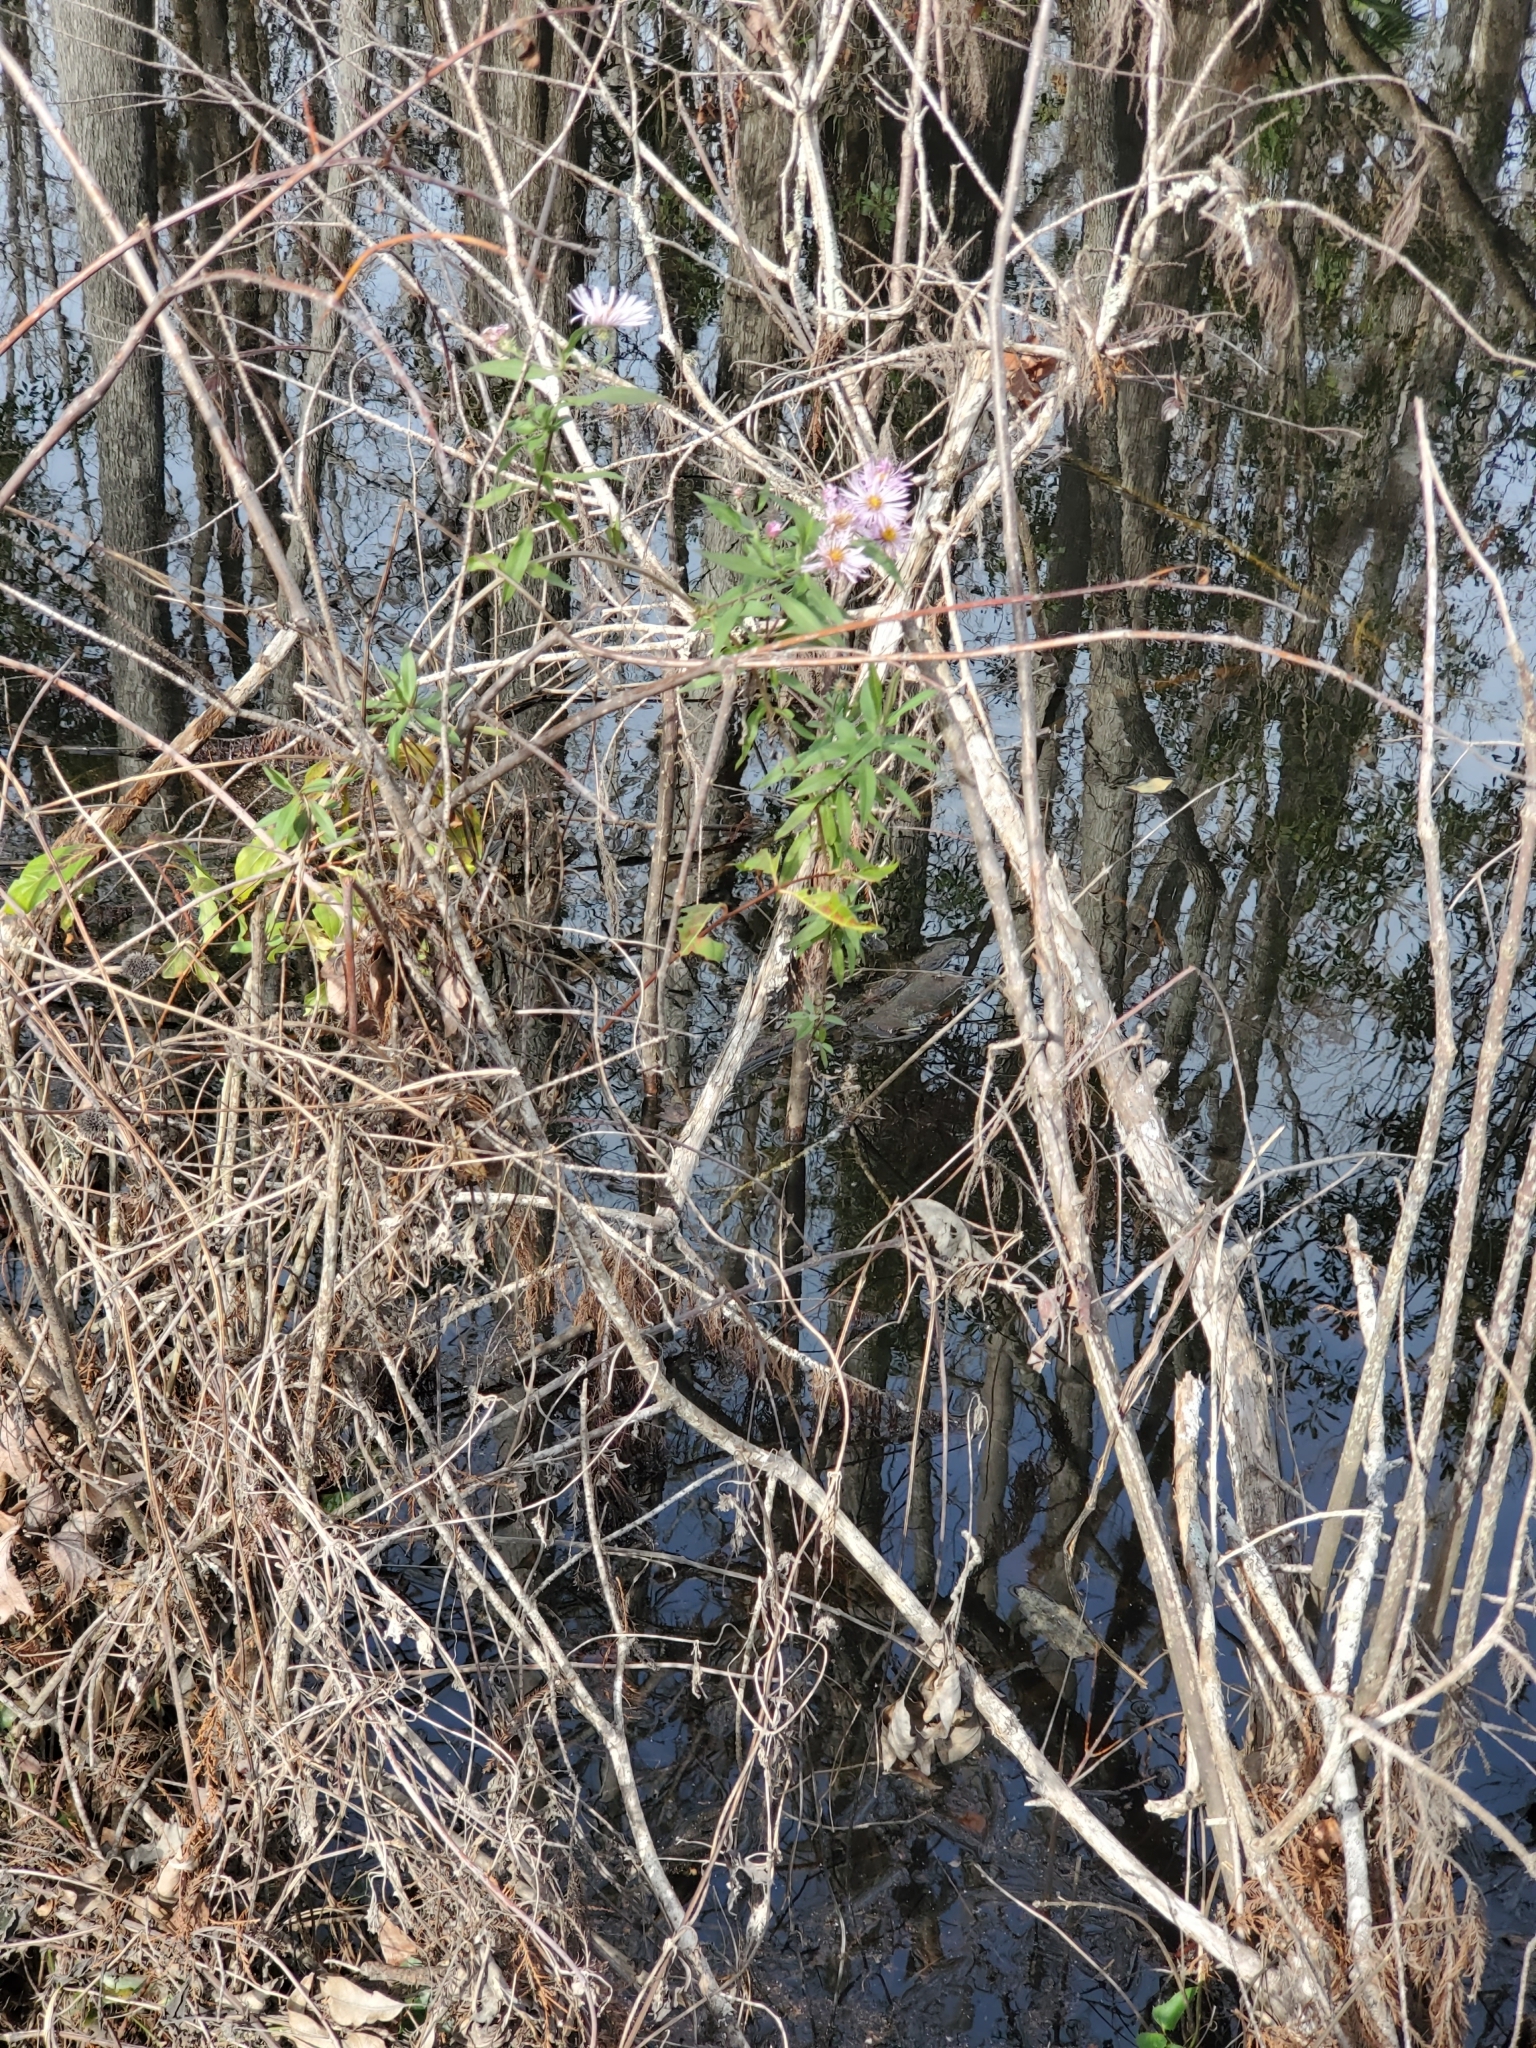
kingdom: Plantae
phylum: Tracheophyta
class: Magnoliopsida
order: Asterales
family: Asteraceae
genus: Ampelaster
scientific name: Ampelaster carolinianus
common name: Climbing aster
